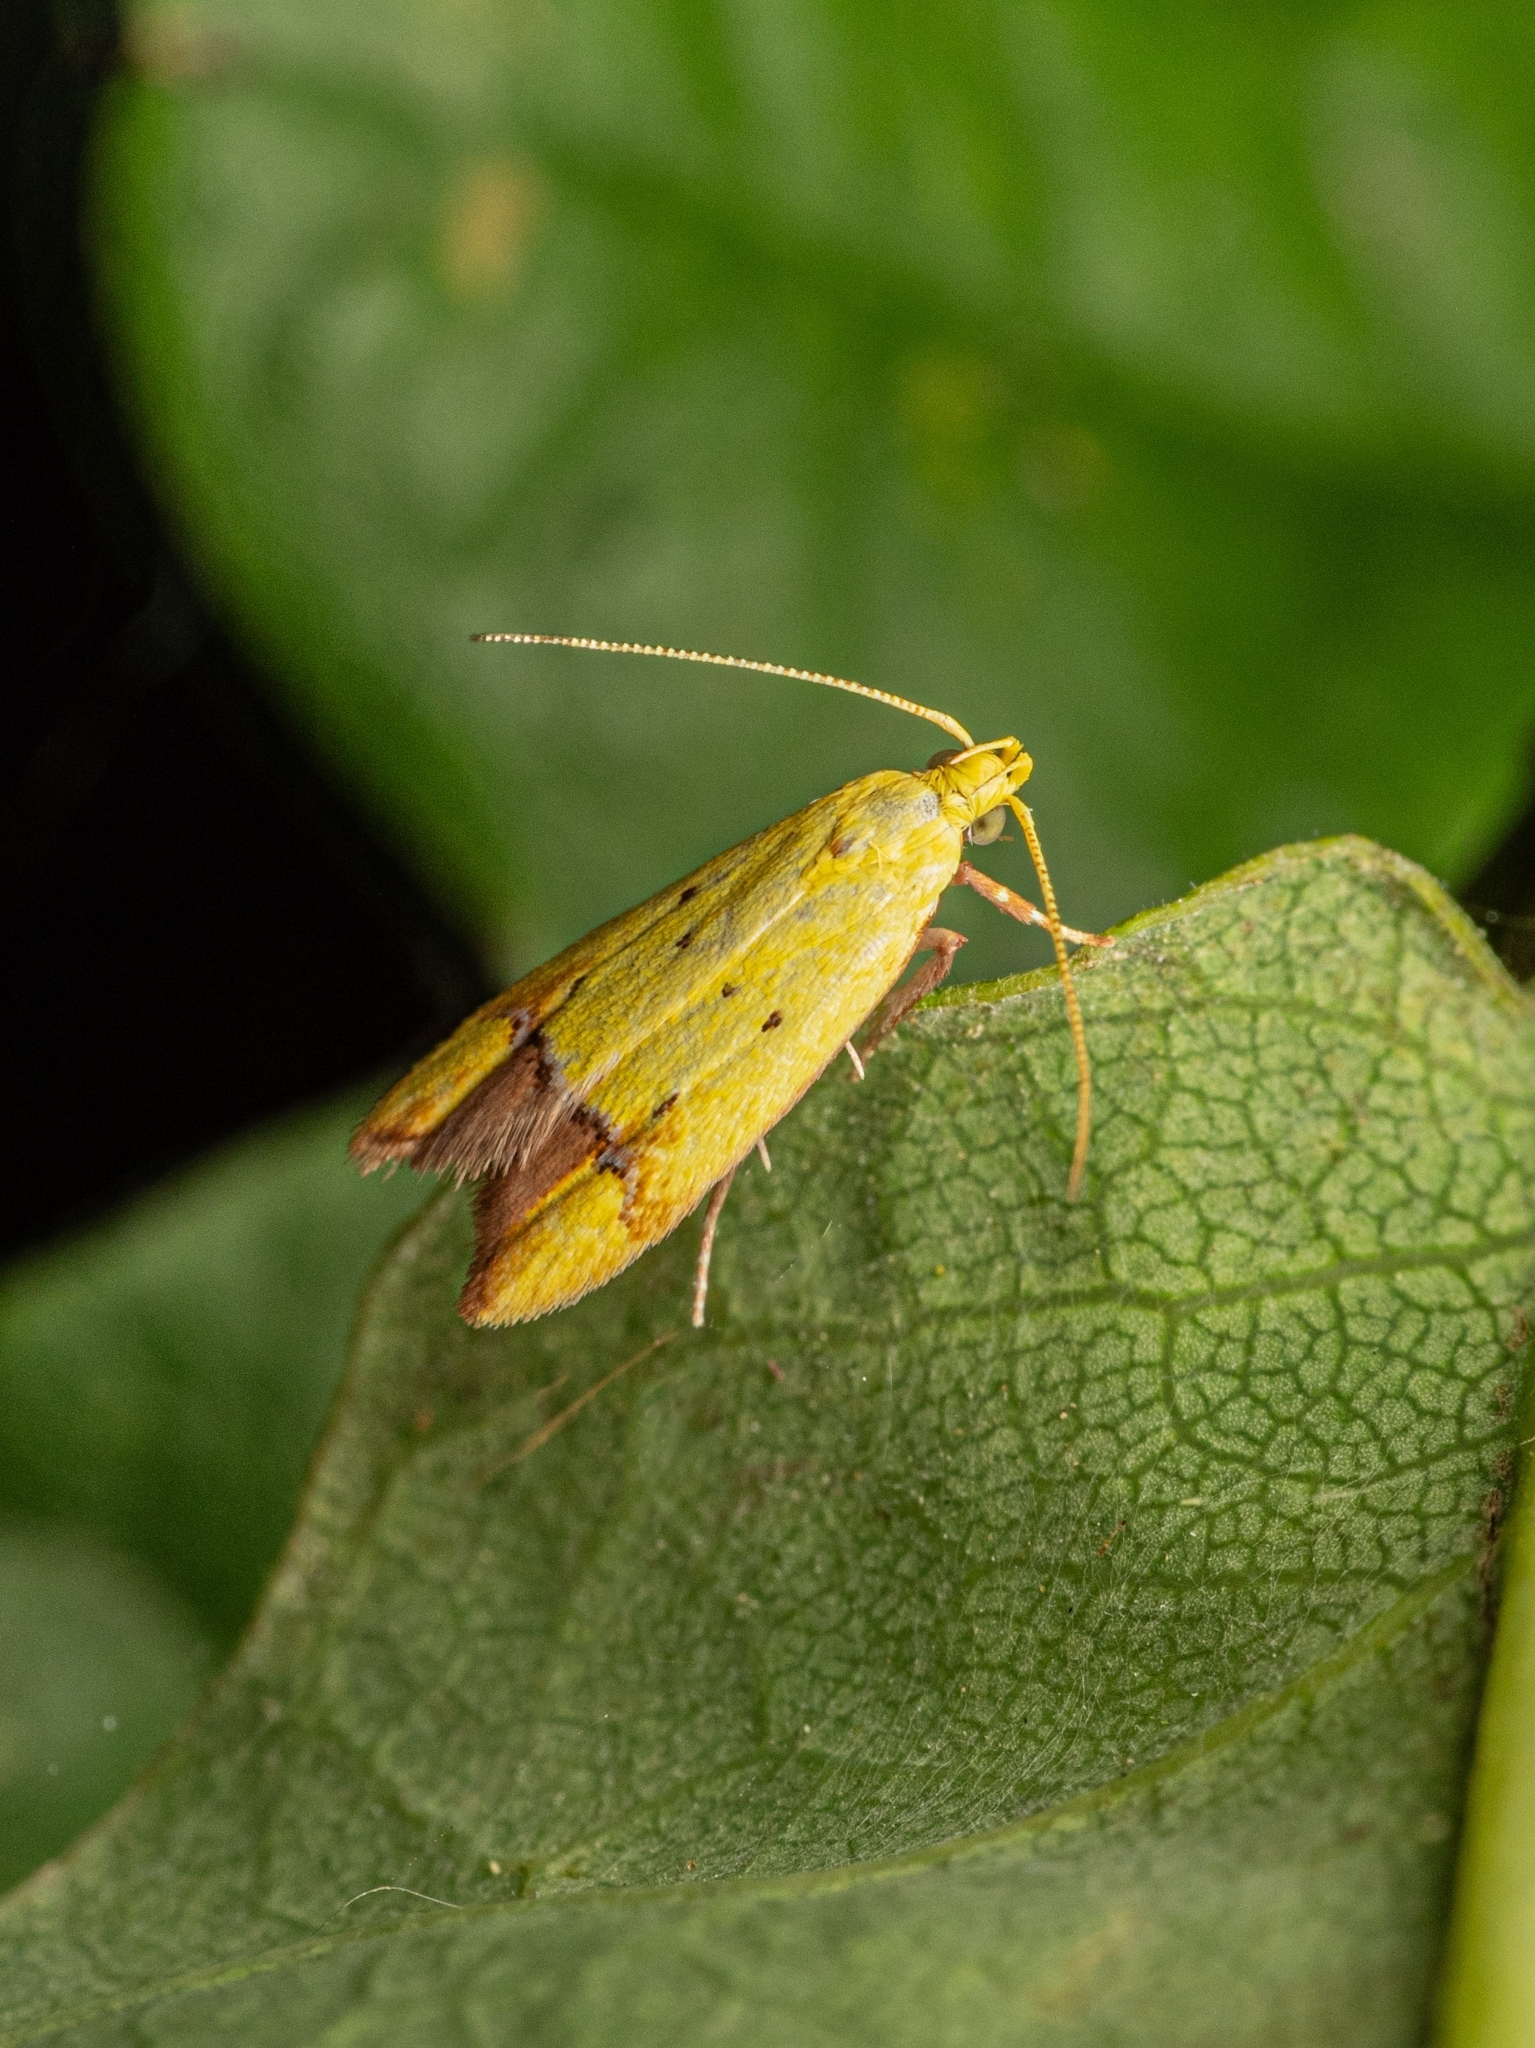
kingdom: Animalia
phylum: Arthropoda
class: Insecta
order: Lepidoptera
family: Oecophoridae
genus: Gymnobathra
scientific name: Gymnobathra flavidella
